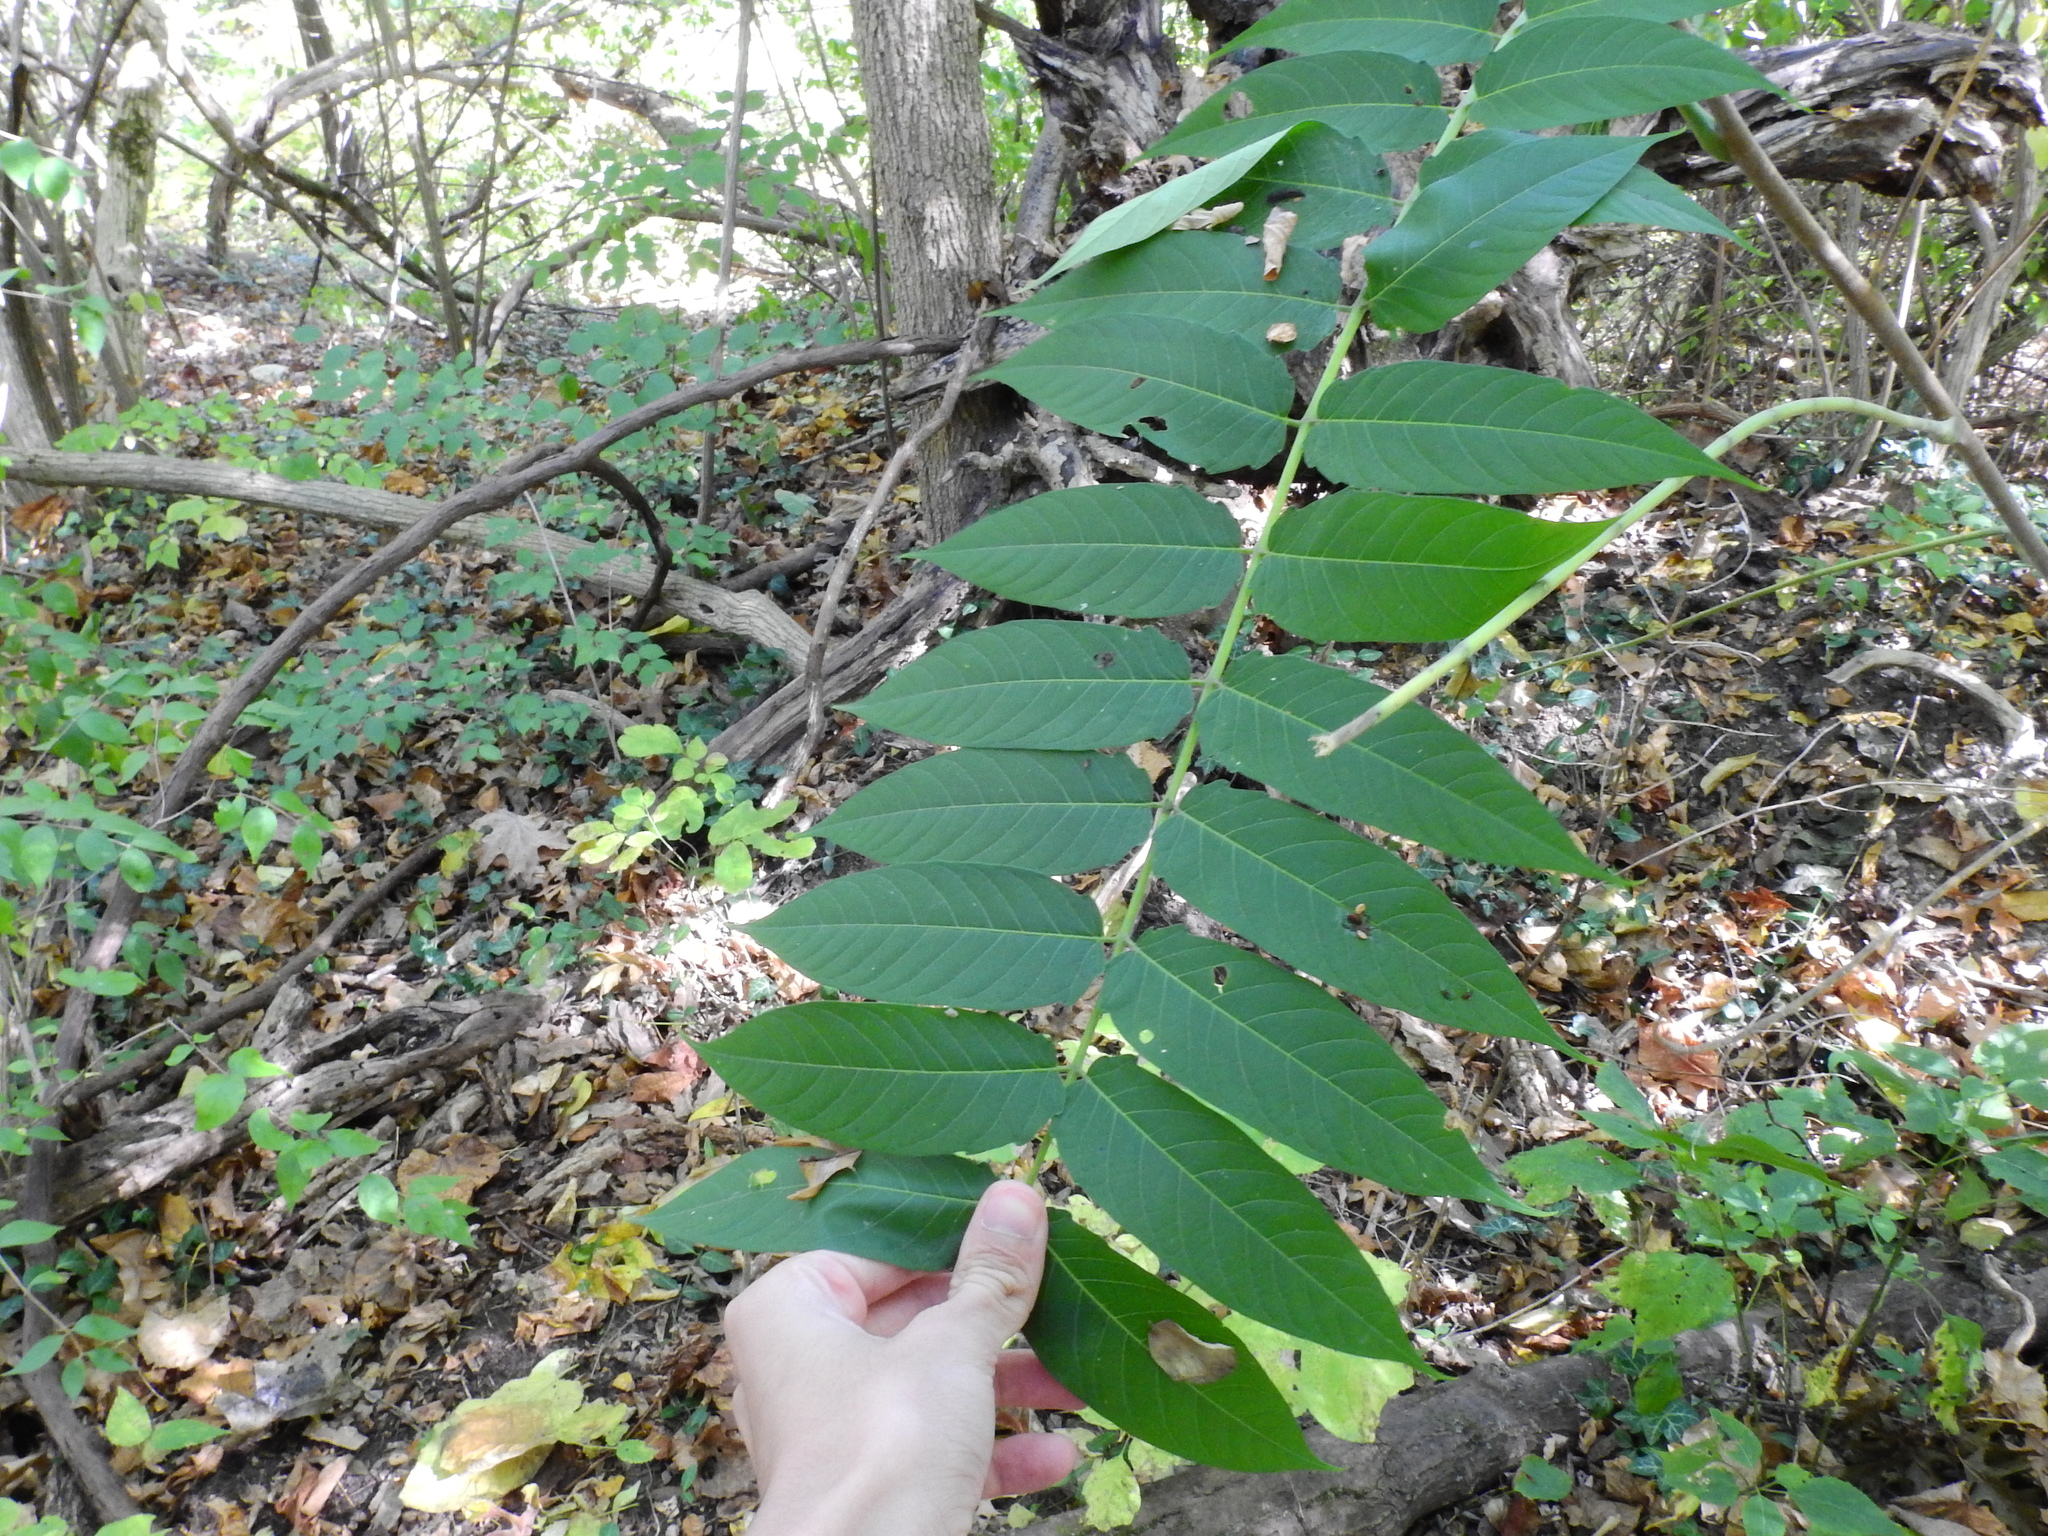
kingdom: Plantae
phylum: Tracheophyta
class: Magnoliopsida
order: Sapindales
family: Simaroubaceae
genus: Ailanthus
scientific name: Ailanthus altissima
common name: Tree-of-heaven
